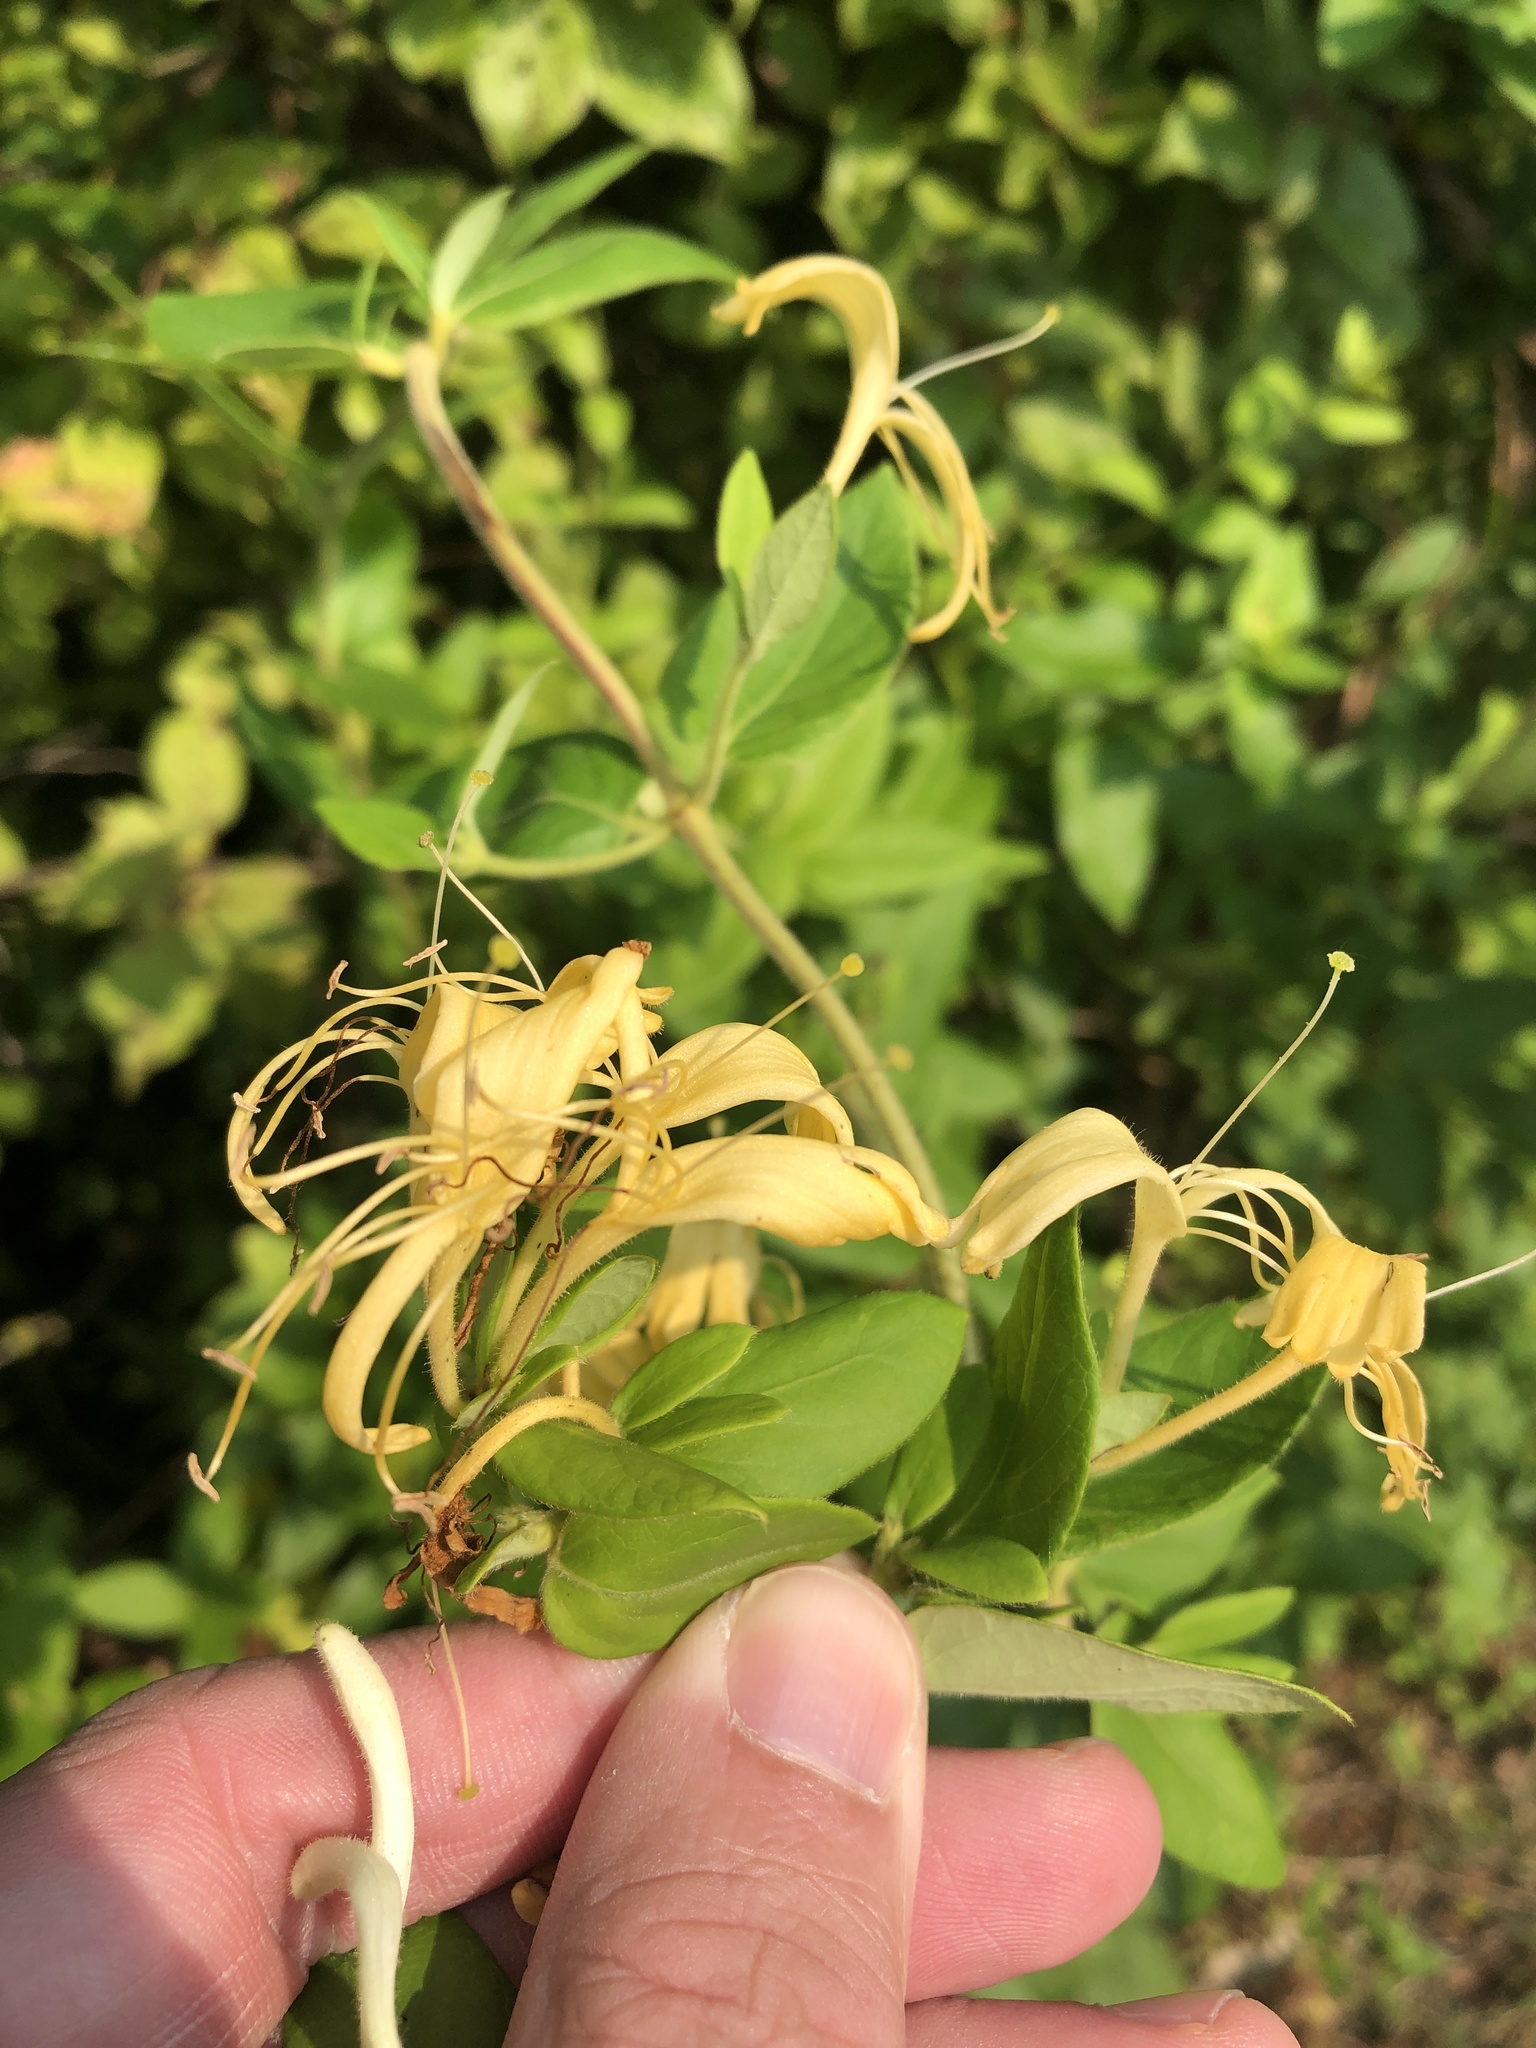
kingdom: Plantae
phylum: Tracheophyta
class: Magnoliopsida
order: Dipsacales
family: Caprifoliaceae
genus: Lonicera
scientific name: Lonicera japonica
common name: Japanese honeysuckle
